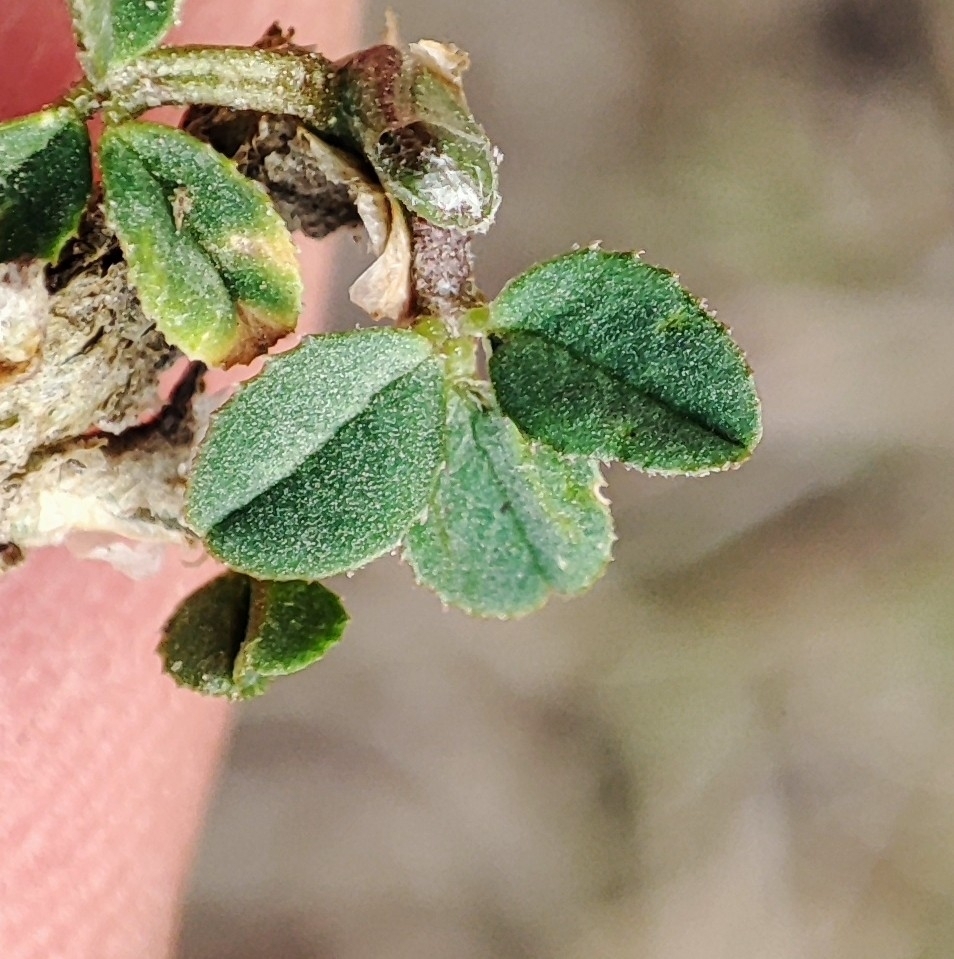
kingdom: Plantae
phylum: Tracheophyta
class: Magnoliopsida
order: Fabales
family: Fabaceae
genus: Medicago
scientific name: Medicago lupulina
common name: Black medick
